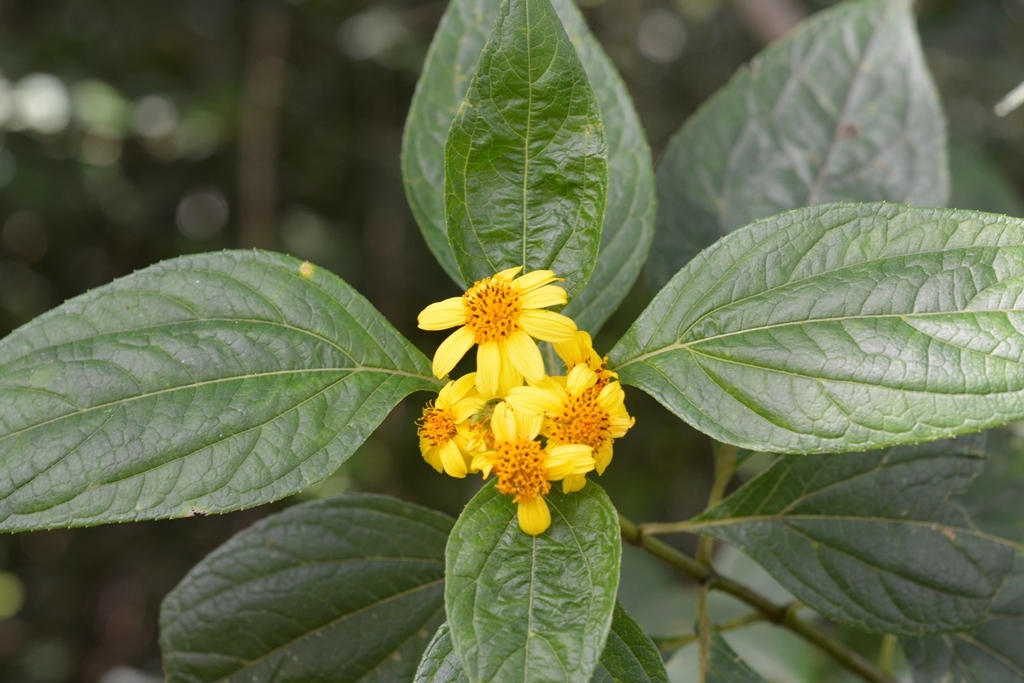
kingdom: Plantae
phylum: Tracheophyta
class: Magnoliopsida
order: Asterales
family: Asteraceae
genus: Lundellianthus
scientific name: Lundellianthus salvinii
